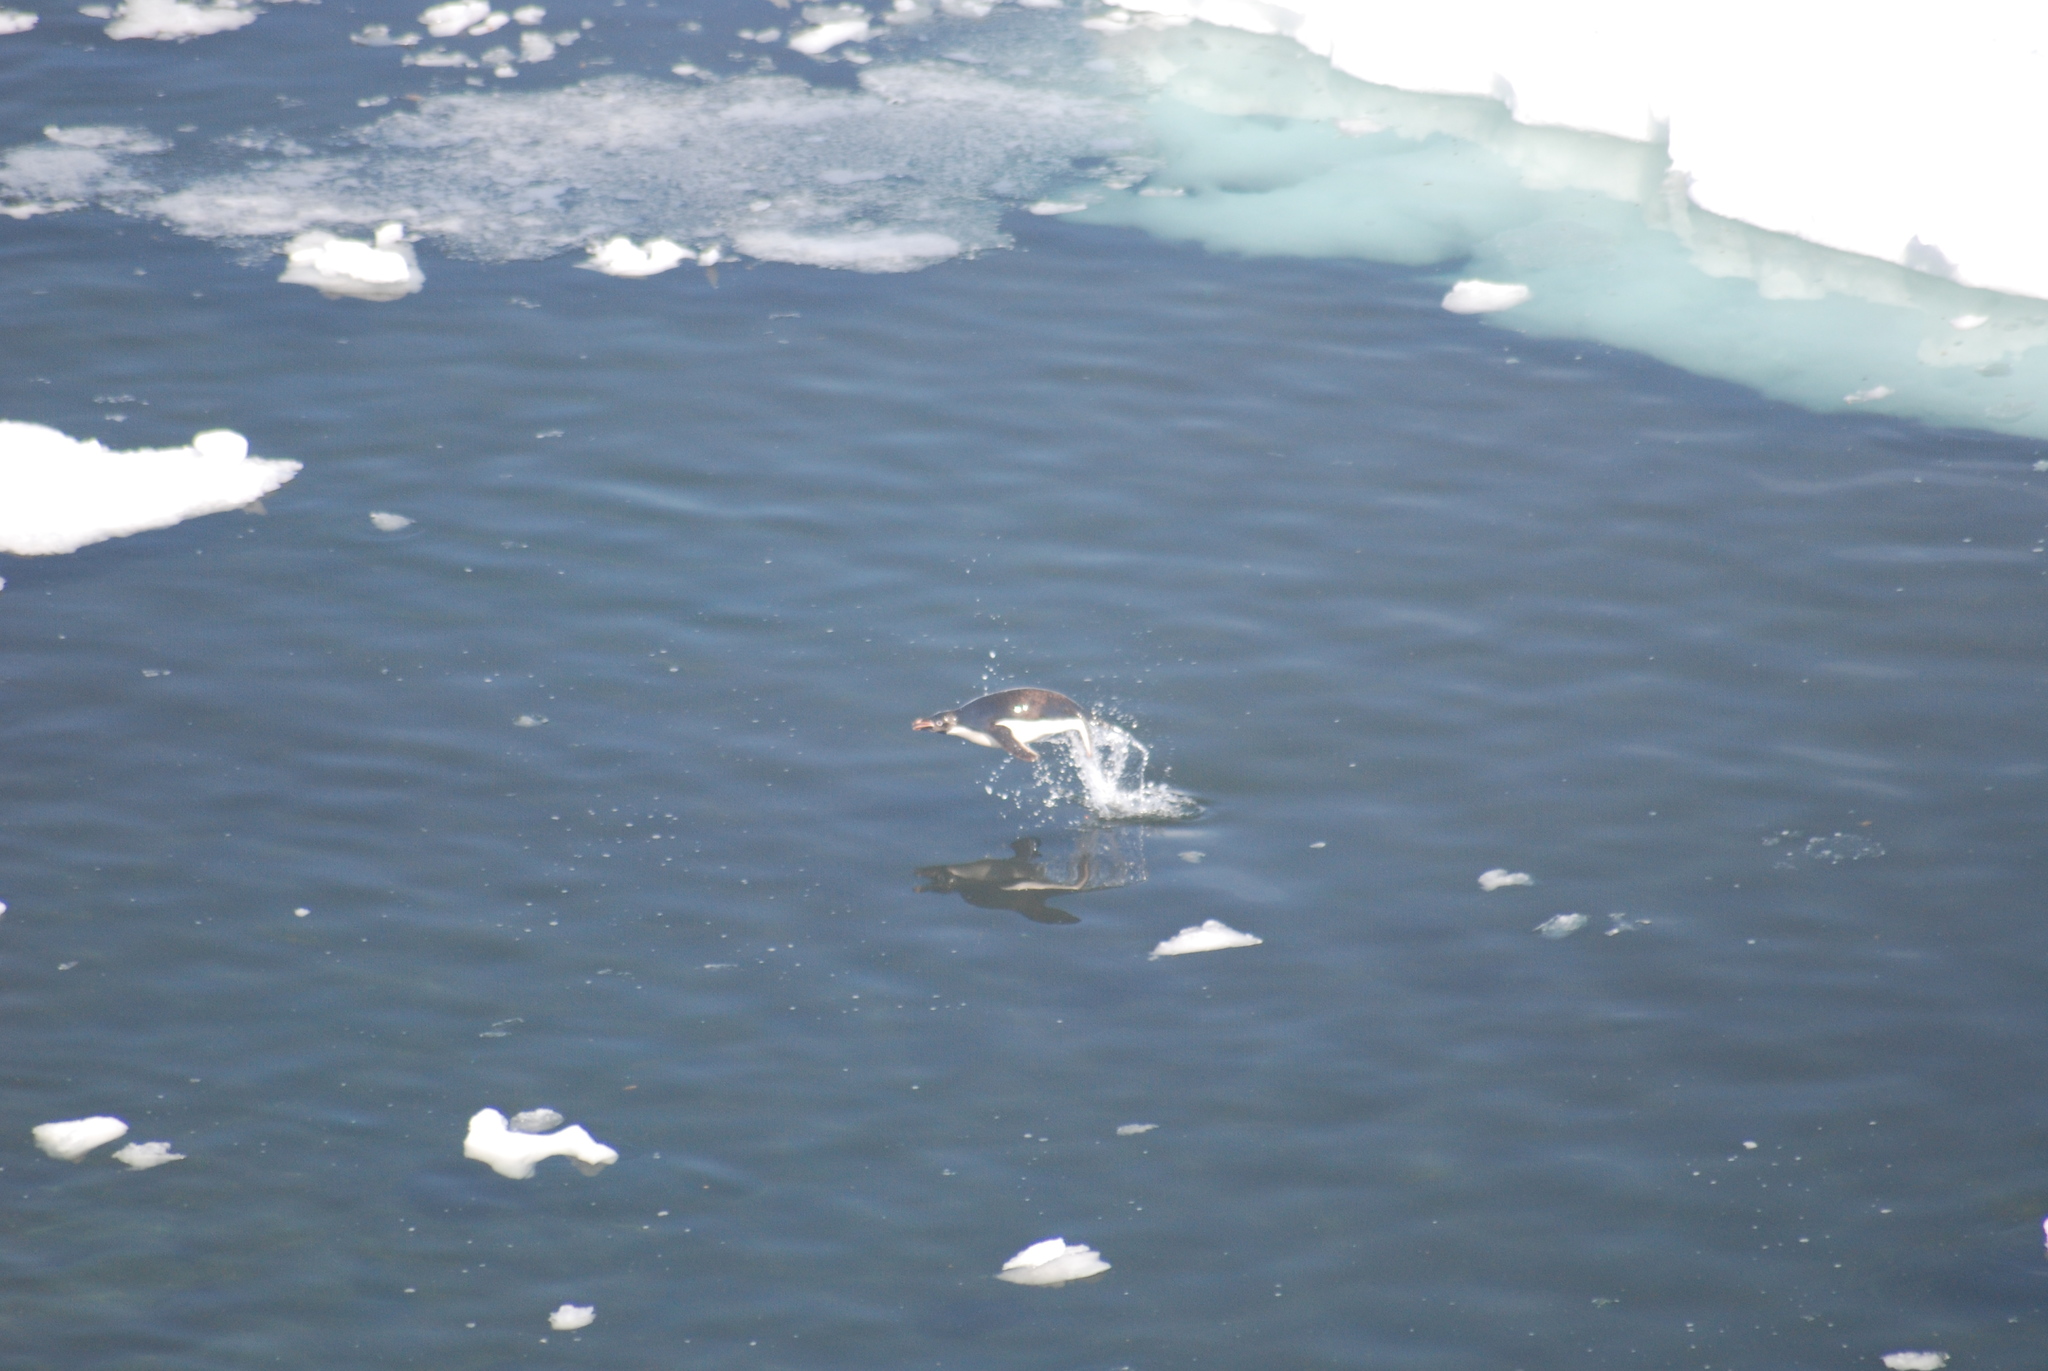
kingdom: Animalia
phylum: Chordata
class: Aves
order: Sphenisciformes
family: Spheniscidae
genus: Pygoscelis
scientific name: Pygoscelis adeliae
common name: Adelie penguin
